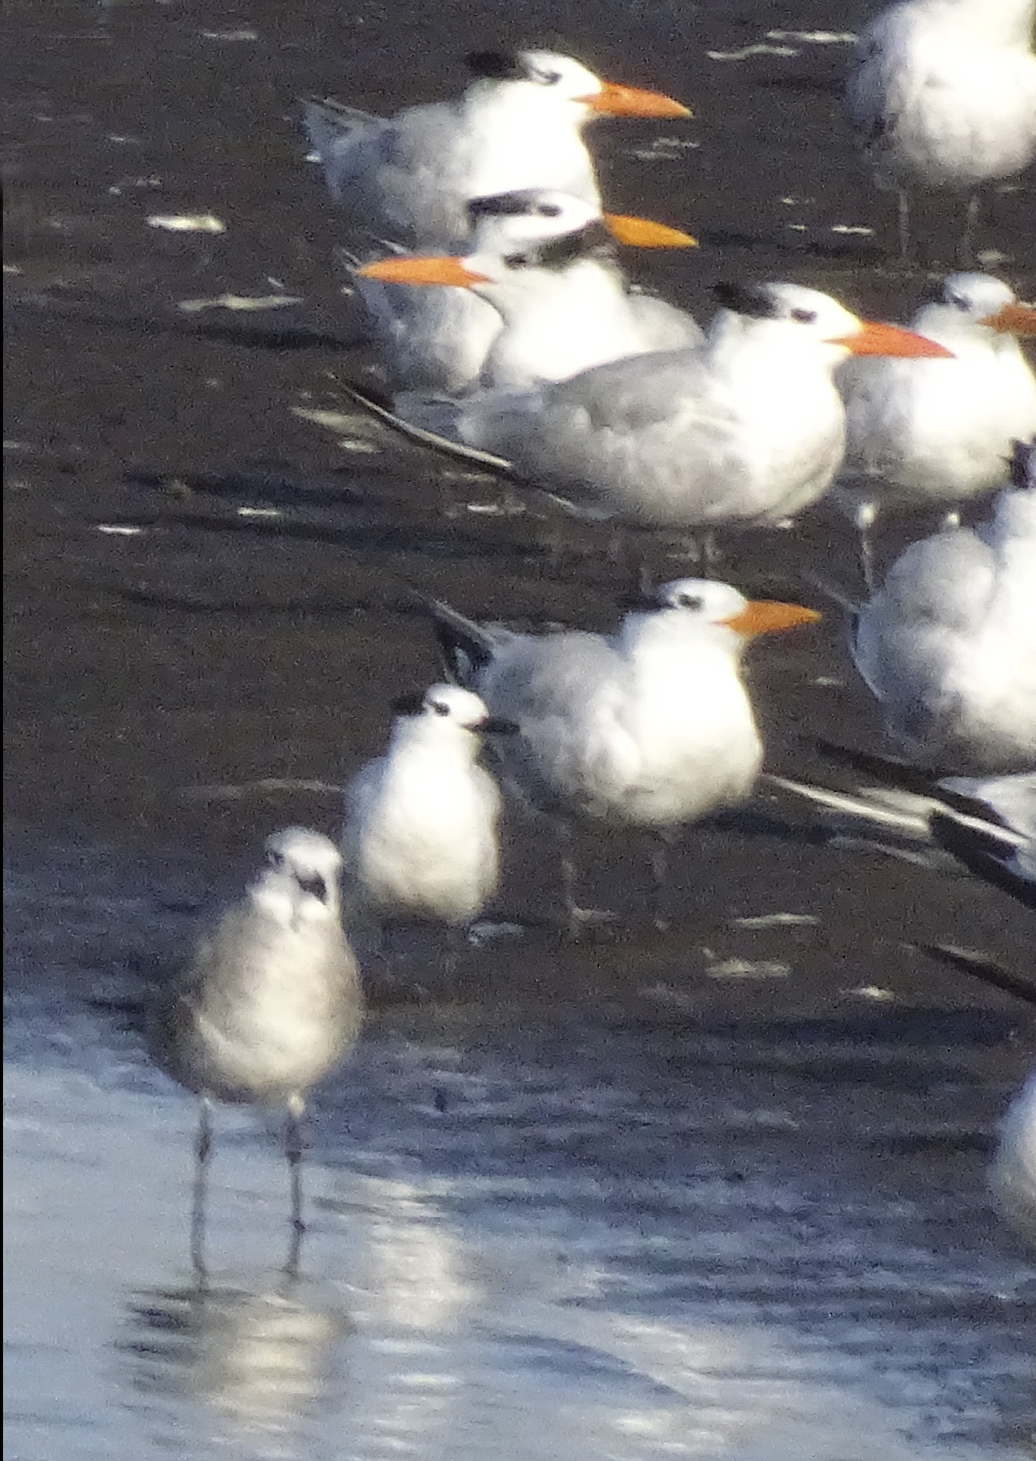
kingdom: Animalia
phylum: Chordata
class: Aves
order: Charadriiformes
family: Laridae
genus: Thalasseus
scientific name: Thalasseus sandvicensis
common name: Sandwich tern
